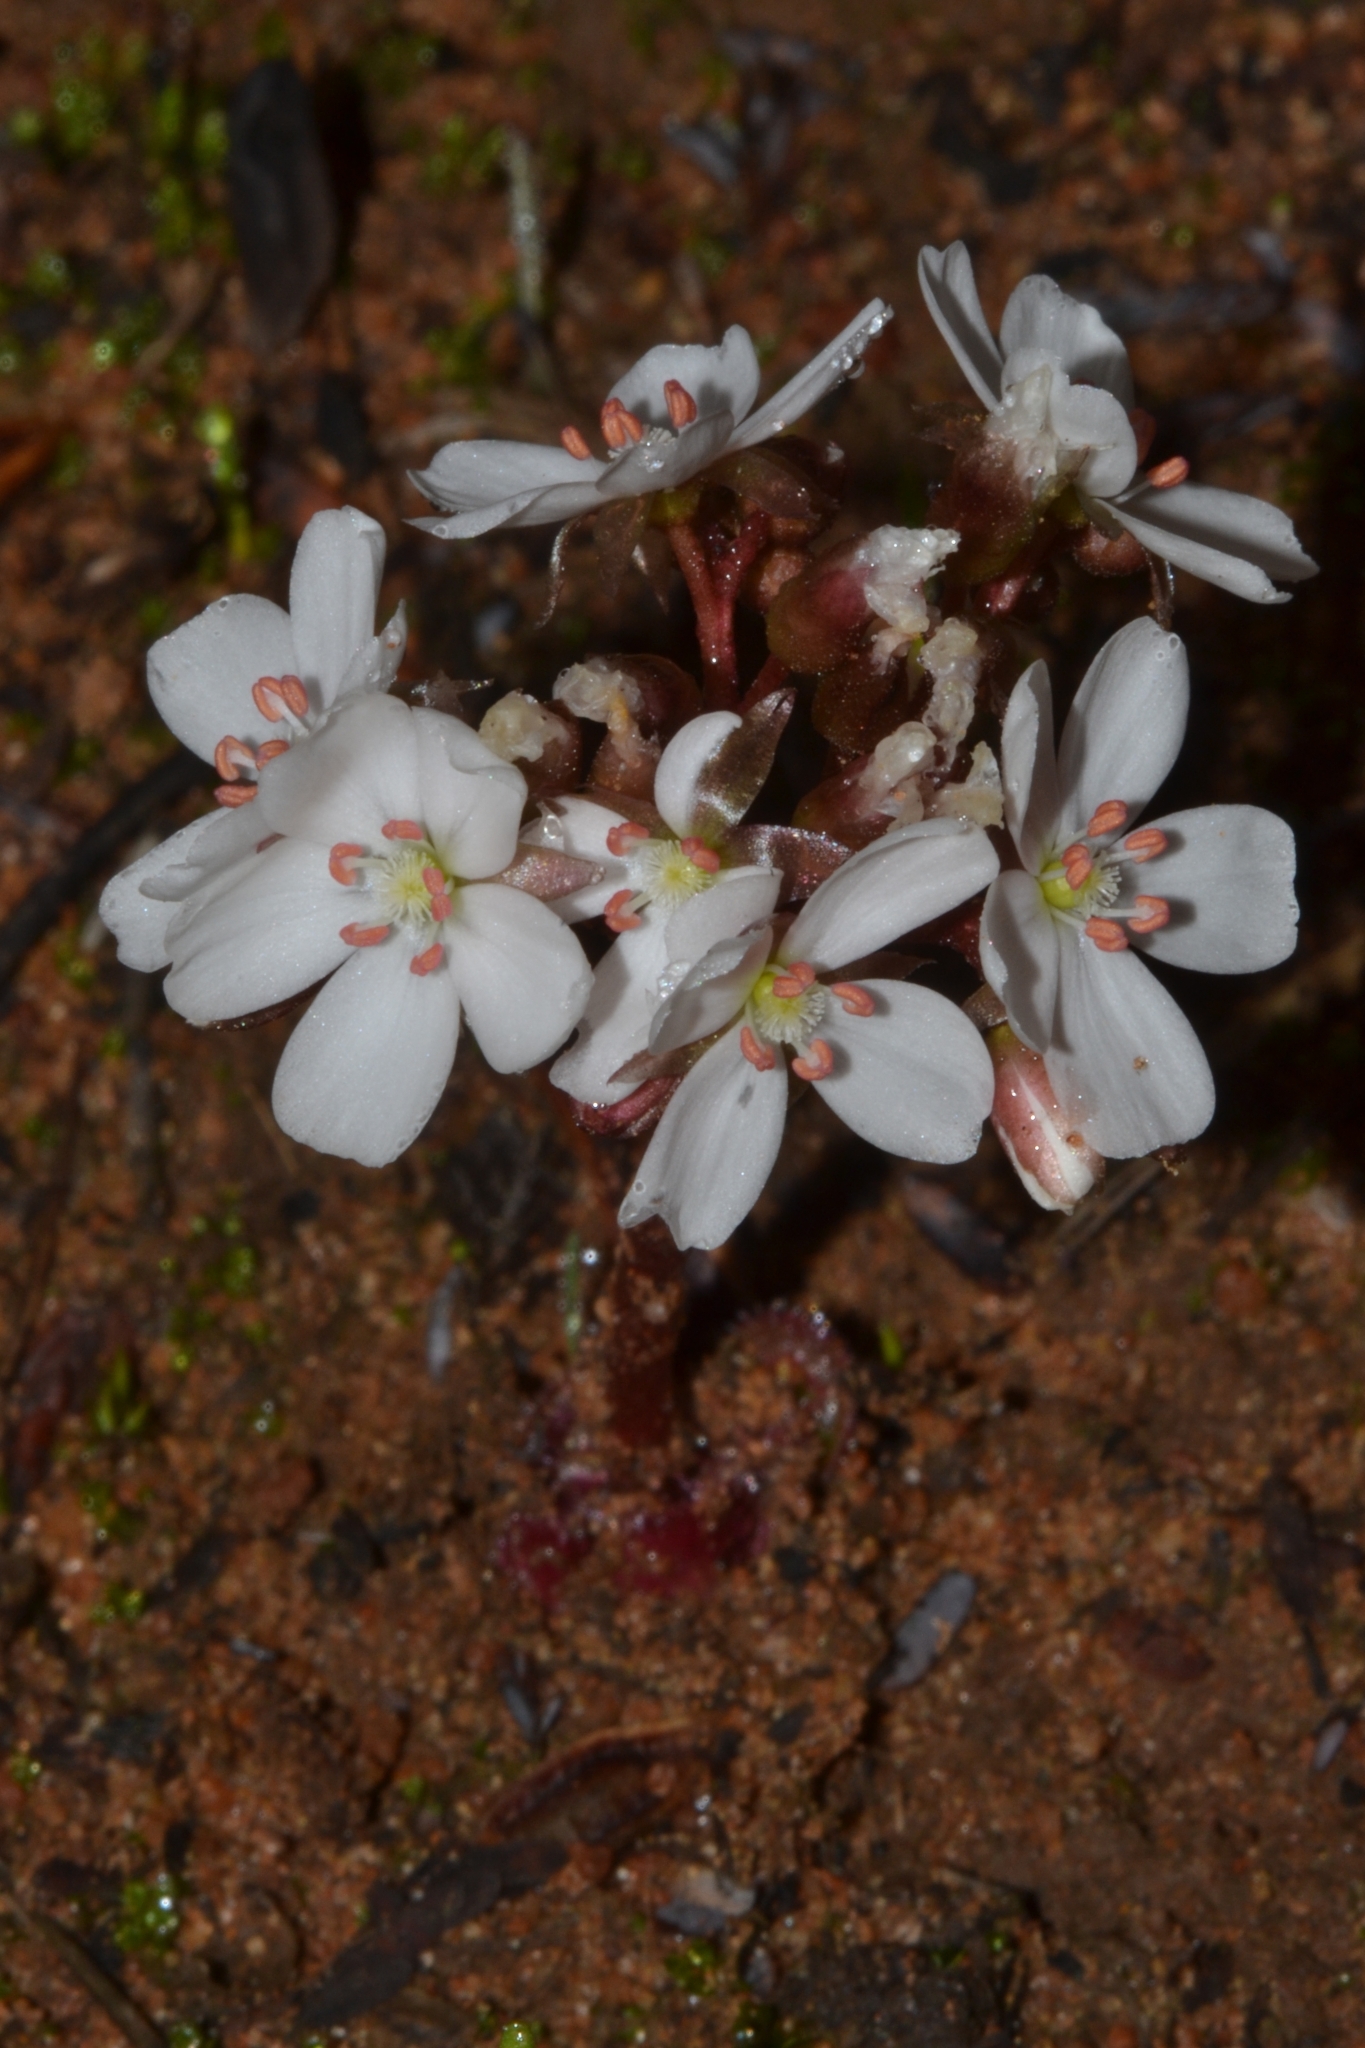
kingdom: Plantae
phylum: Tracheophyta
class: Magnoliopsida
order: Caryophyllales
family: Droseraceae
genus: Drosera
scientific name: Drosera erythrorhiza
